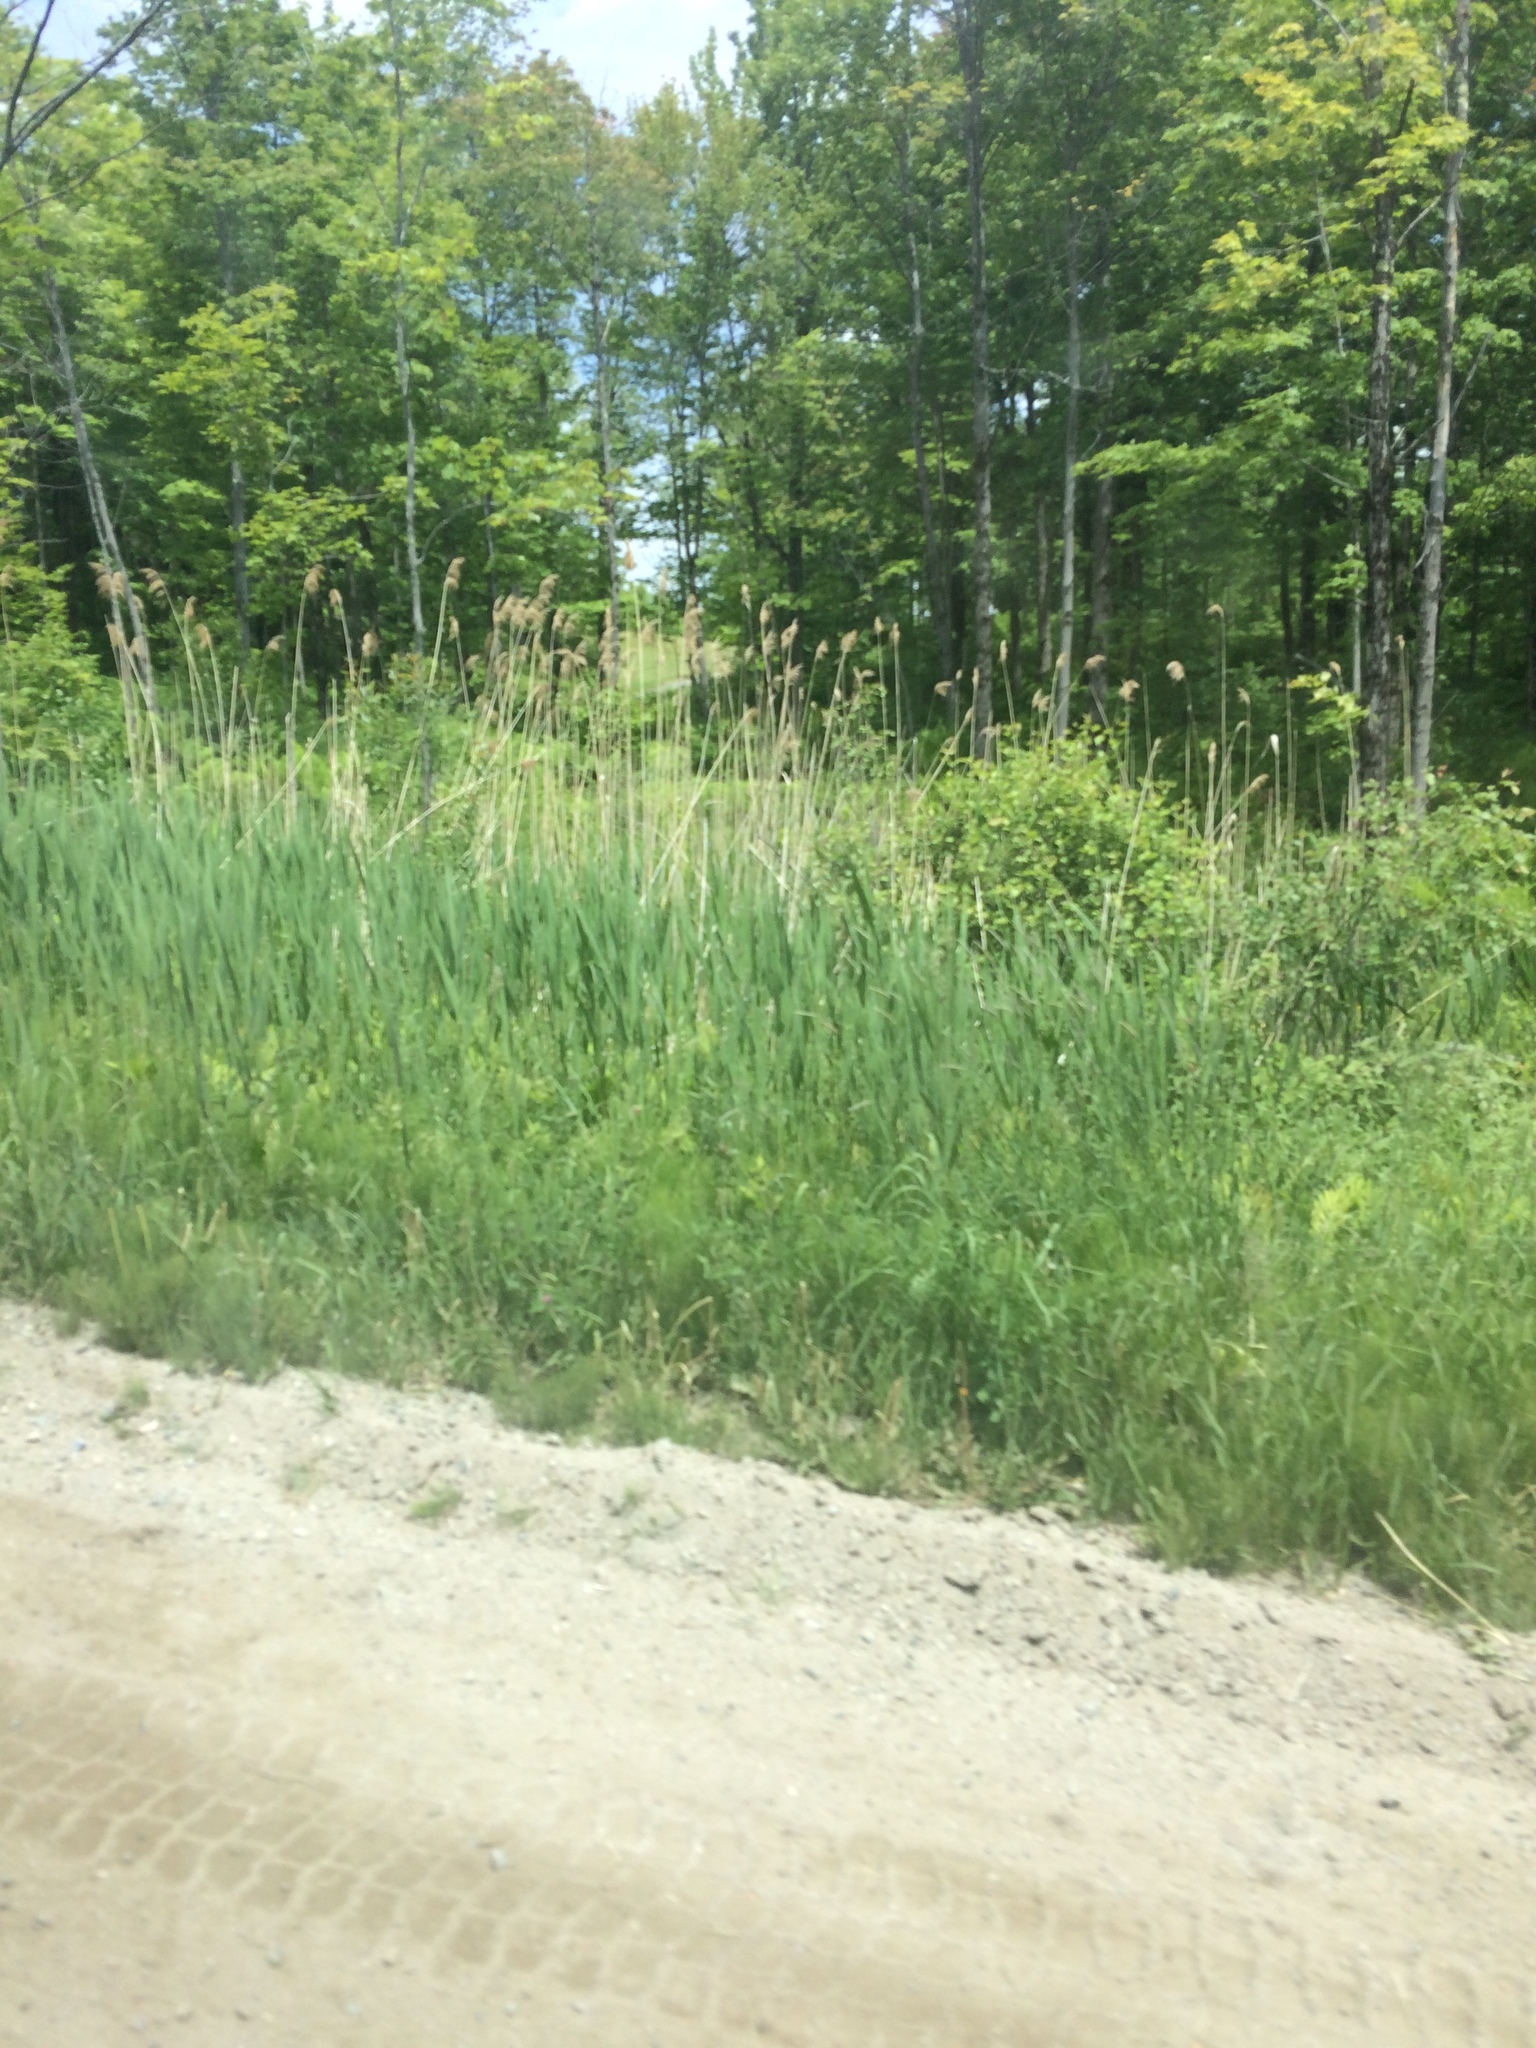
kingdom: Plantae
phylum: Tracheophyta
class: Liliopsida
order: Poales
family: Poaceae
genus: Phragmites
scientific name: Phragmites australis
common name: Common reed
